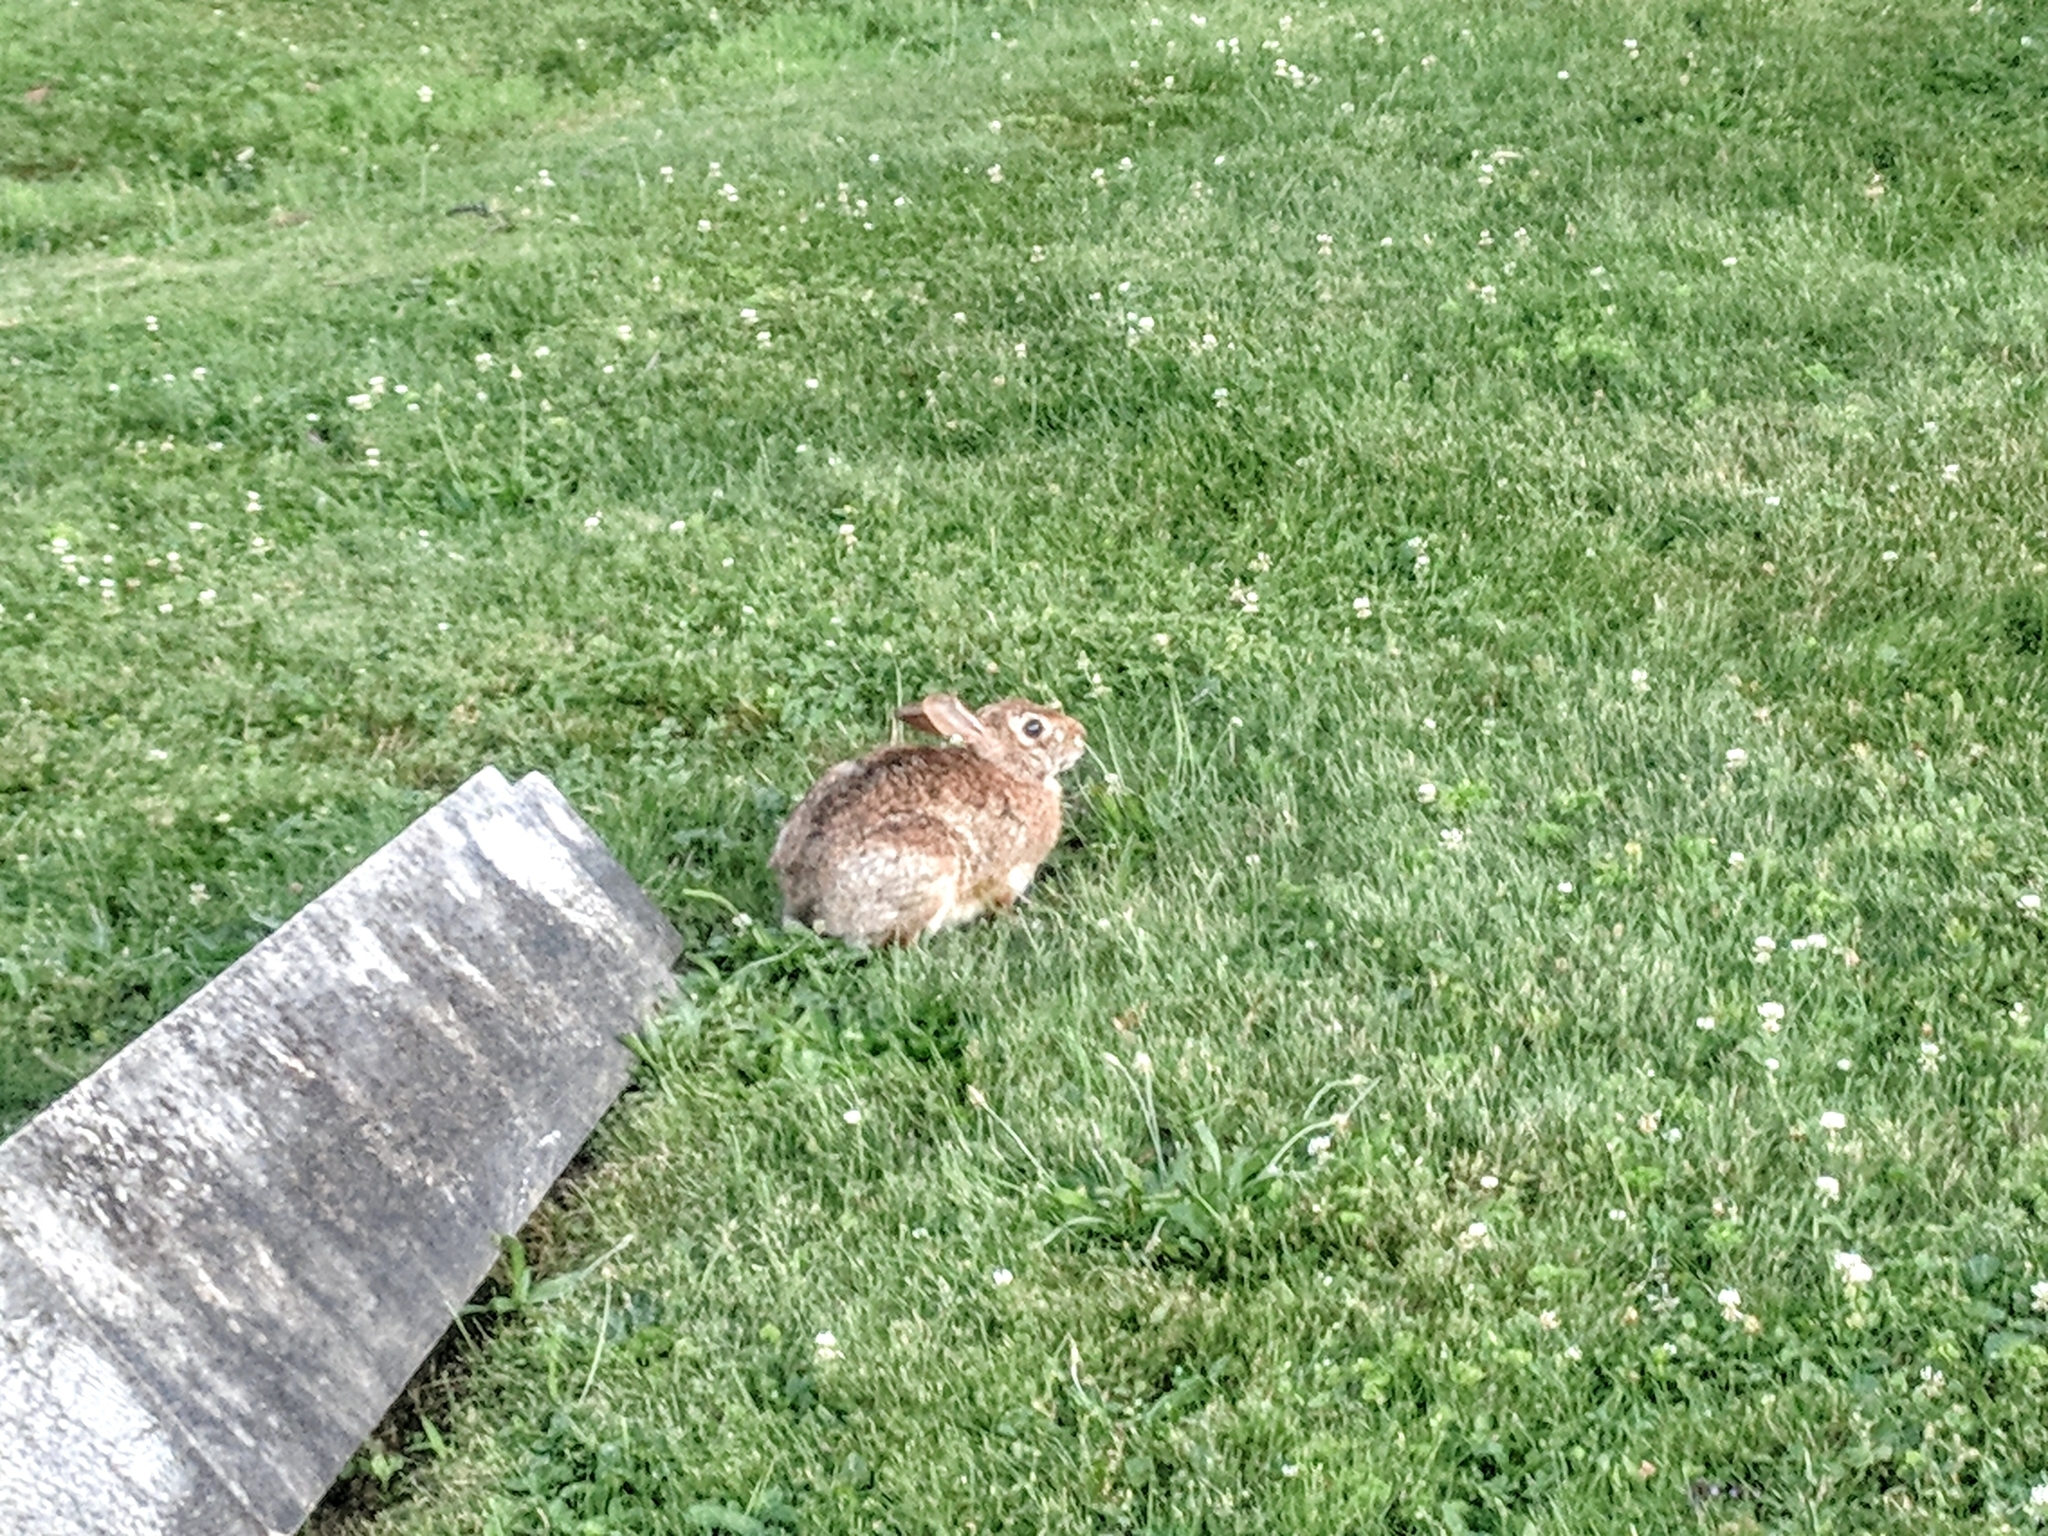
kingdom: Animalia
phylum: Chordata
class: Mammalia
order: Lagomorpha
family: Leporidae
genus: Sylvilagus
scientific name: Sylvilagus floridanus
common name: Eastern cottontail
